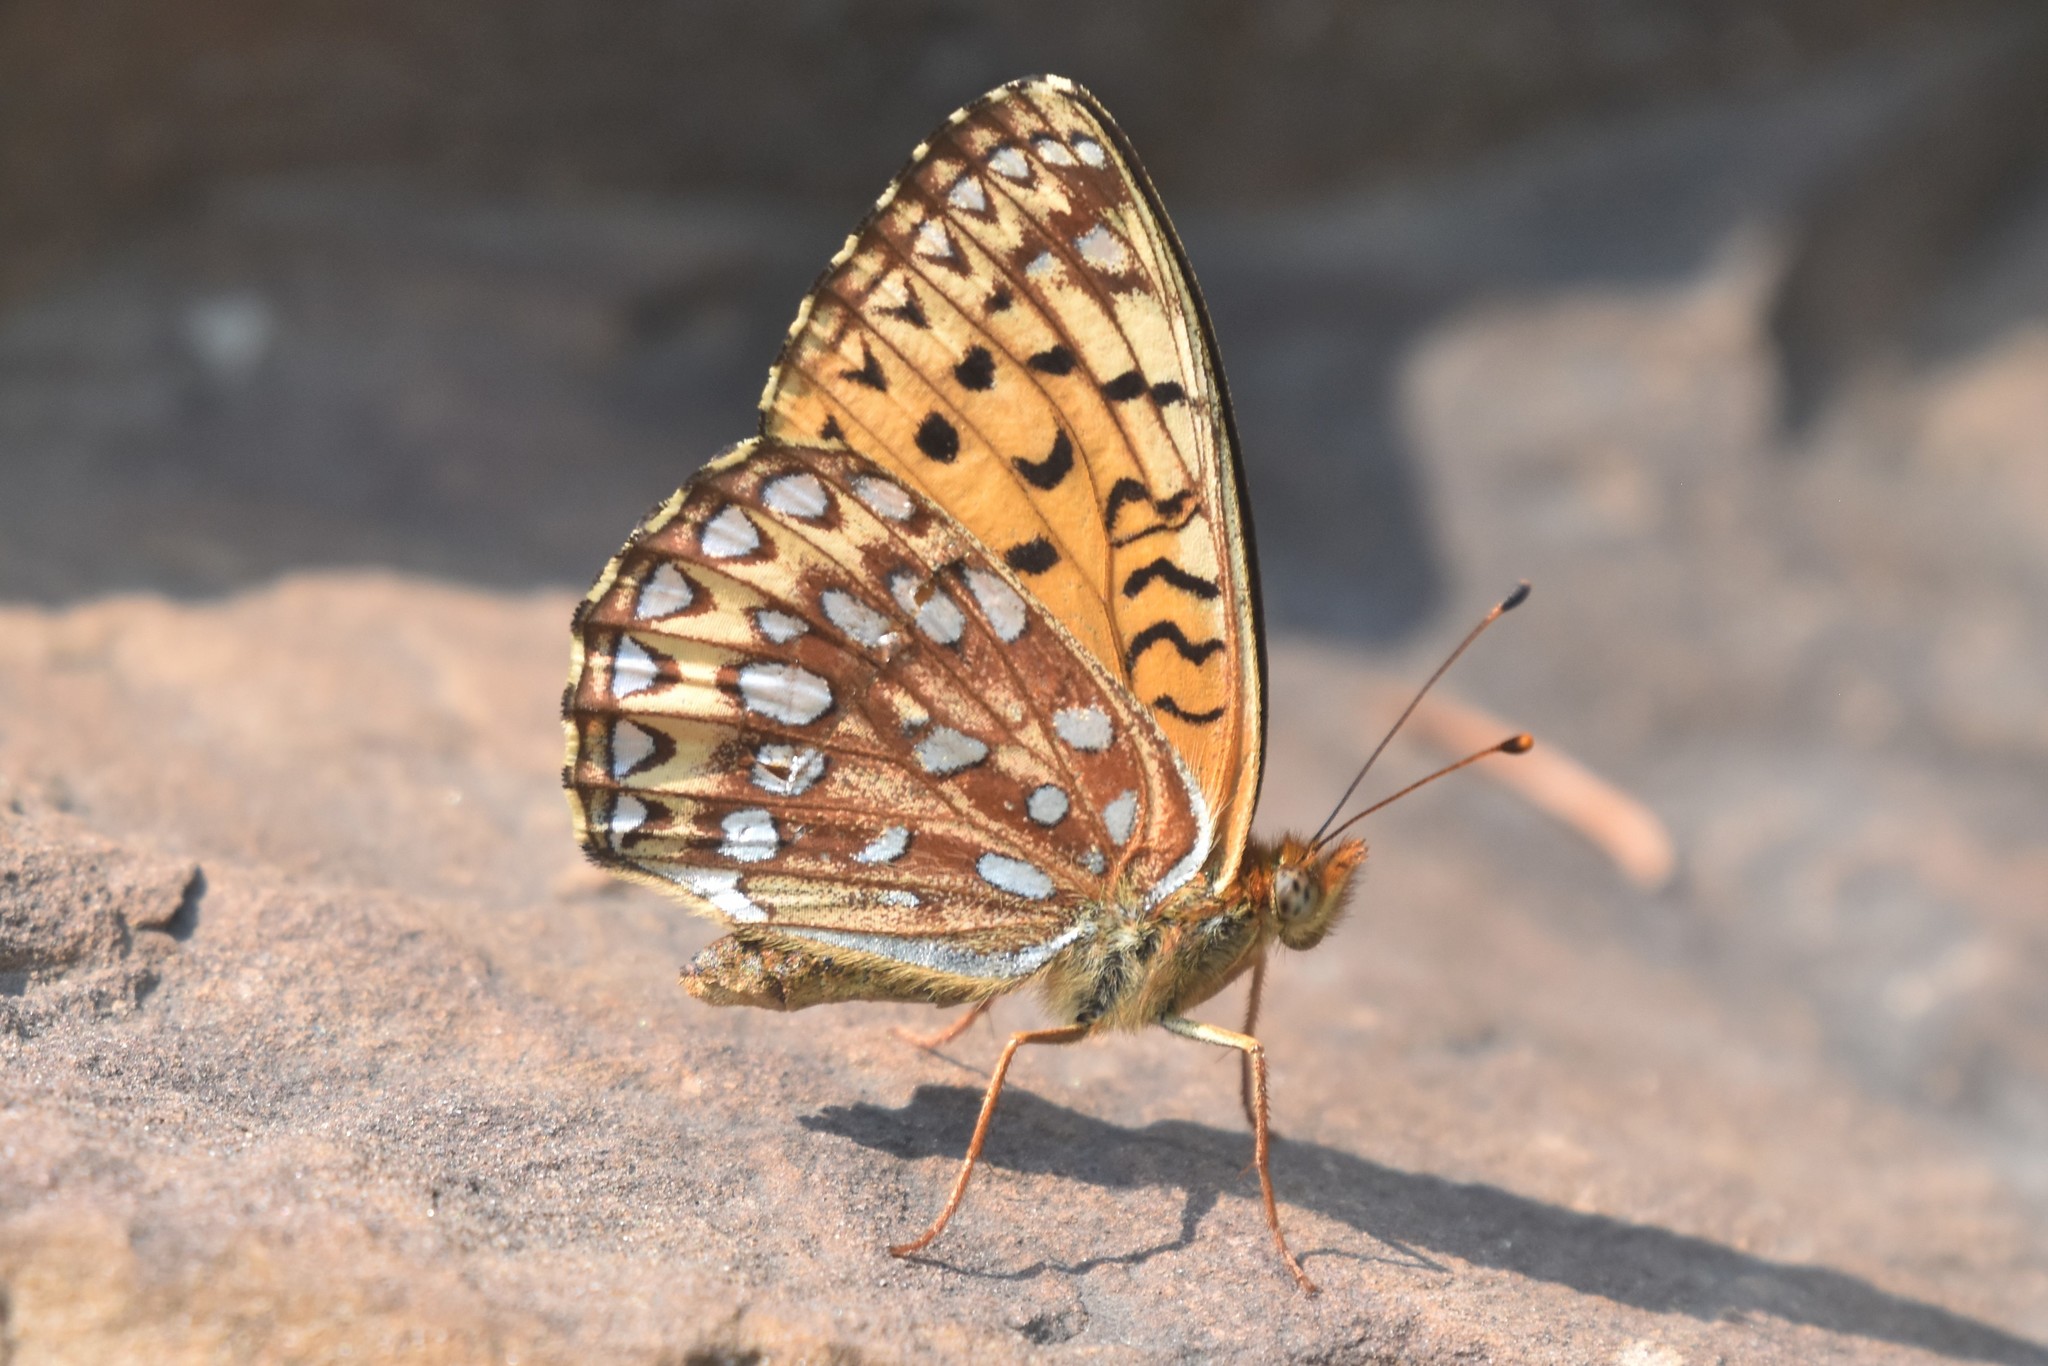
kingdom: Animalia
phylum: Arthropoda
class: Insecta
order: Lepidoptera
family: Nymphalidae
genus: Speyeria
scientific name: Speyeria atlantis
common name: Atlantis fritillary
